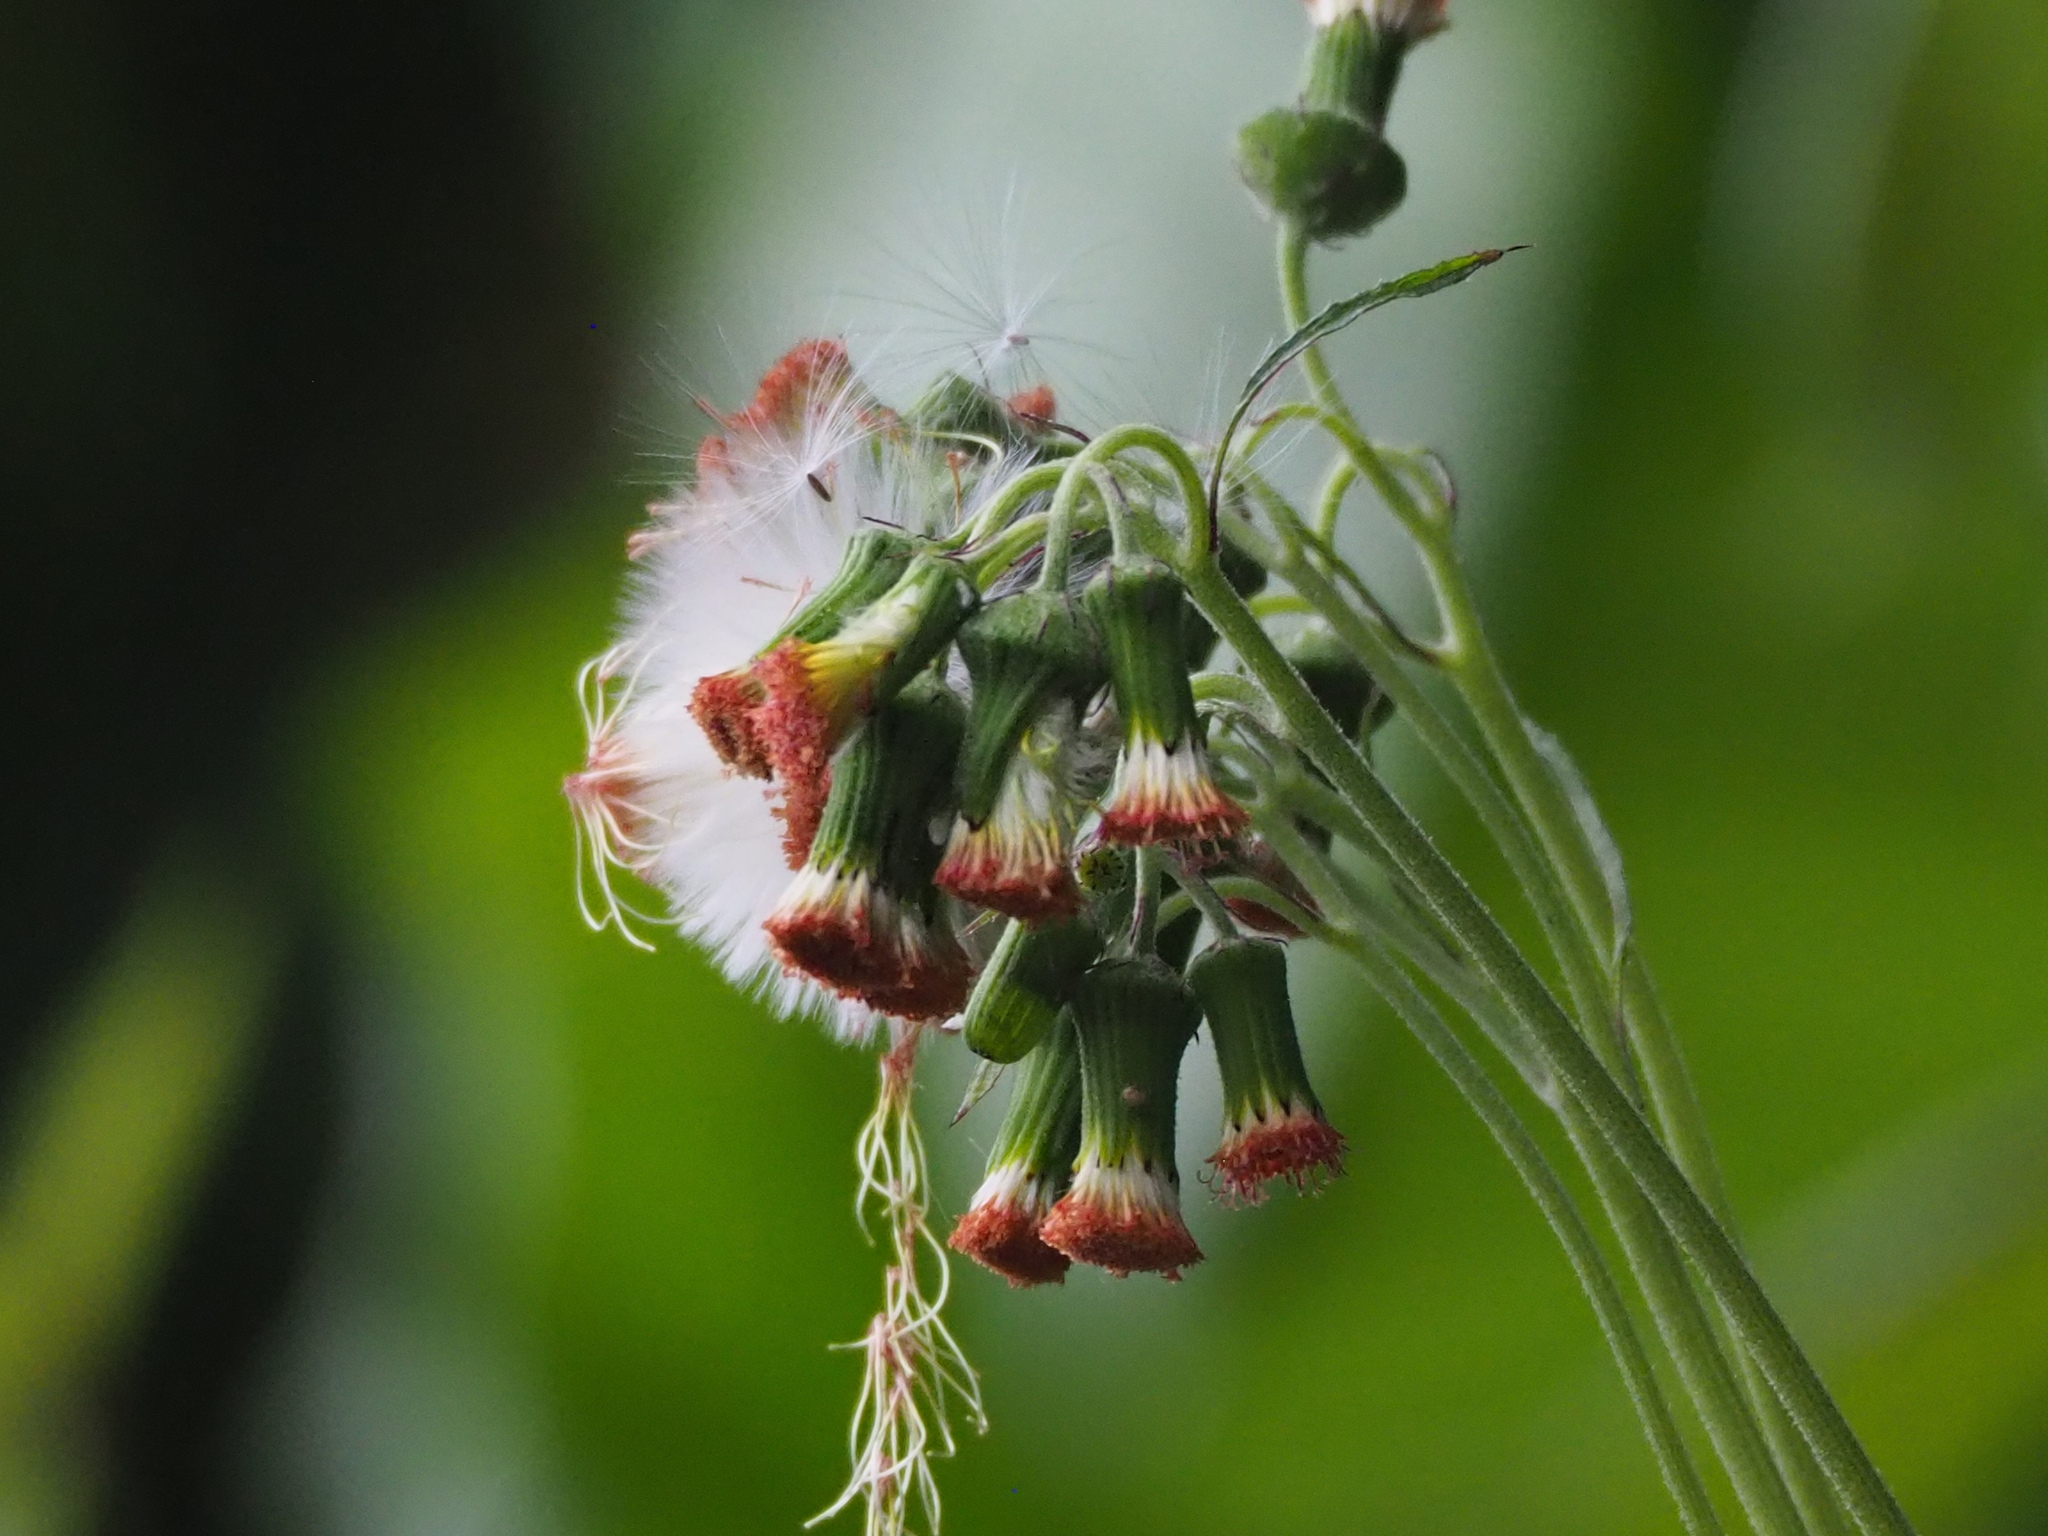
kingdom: Plantae
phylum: Tracheophyta
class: Magnoliopsida
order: Asterales
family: Asteraceae
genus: Crassocephalum
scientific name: Crassocephalum crepidioides
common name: Redflower ragleaf
